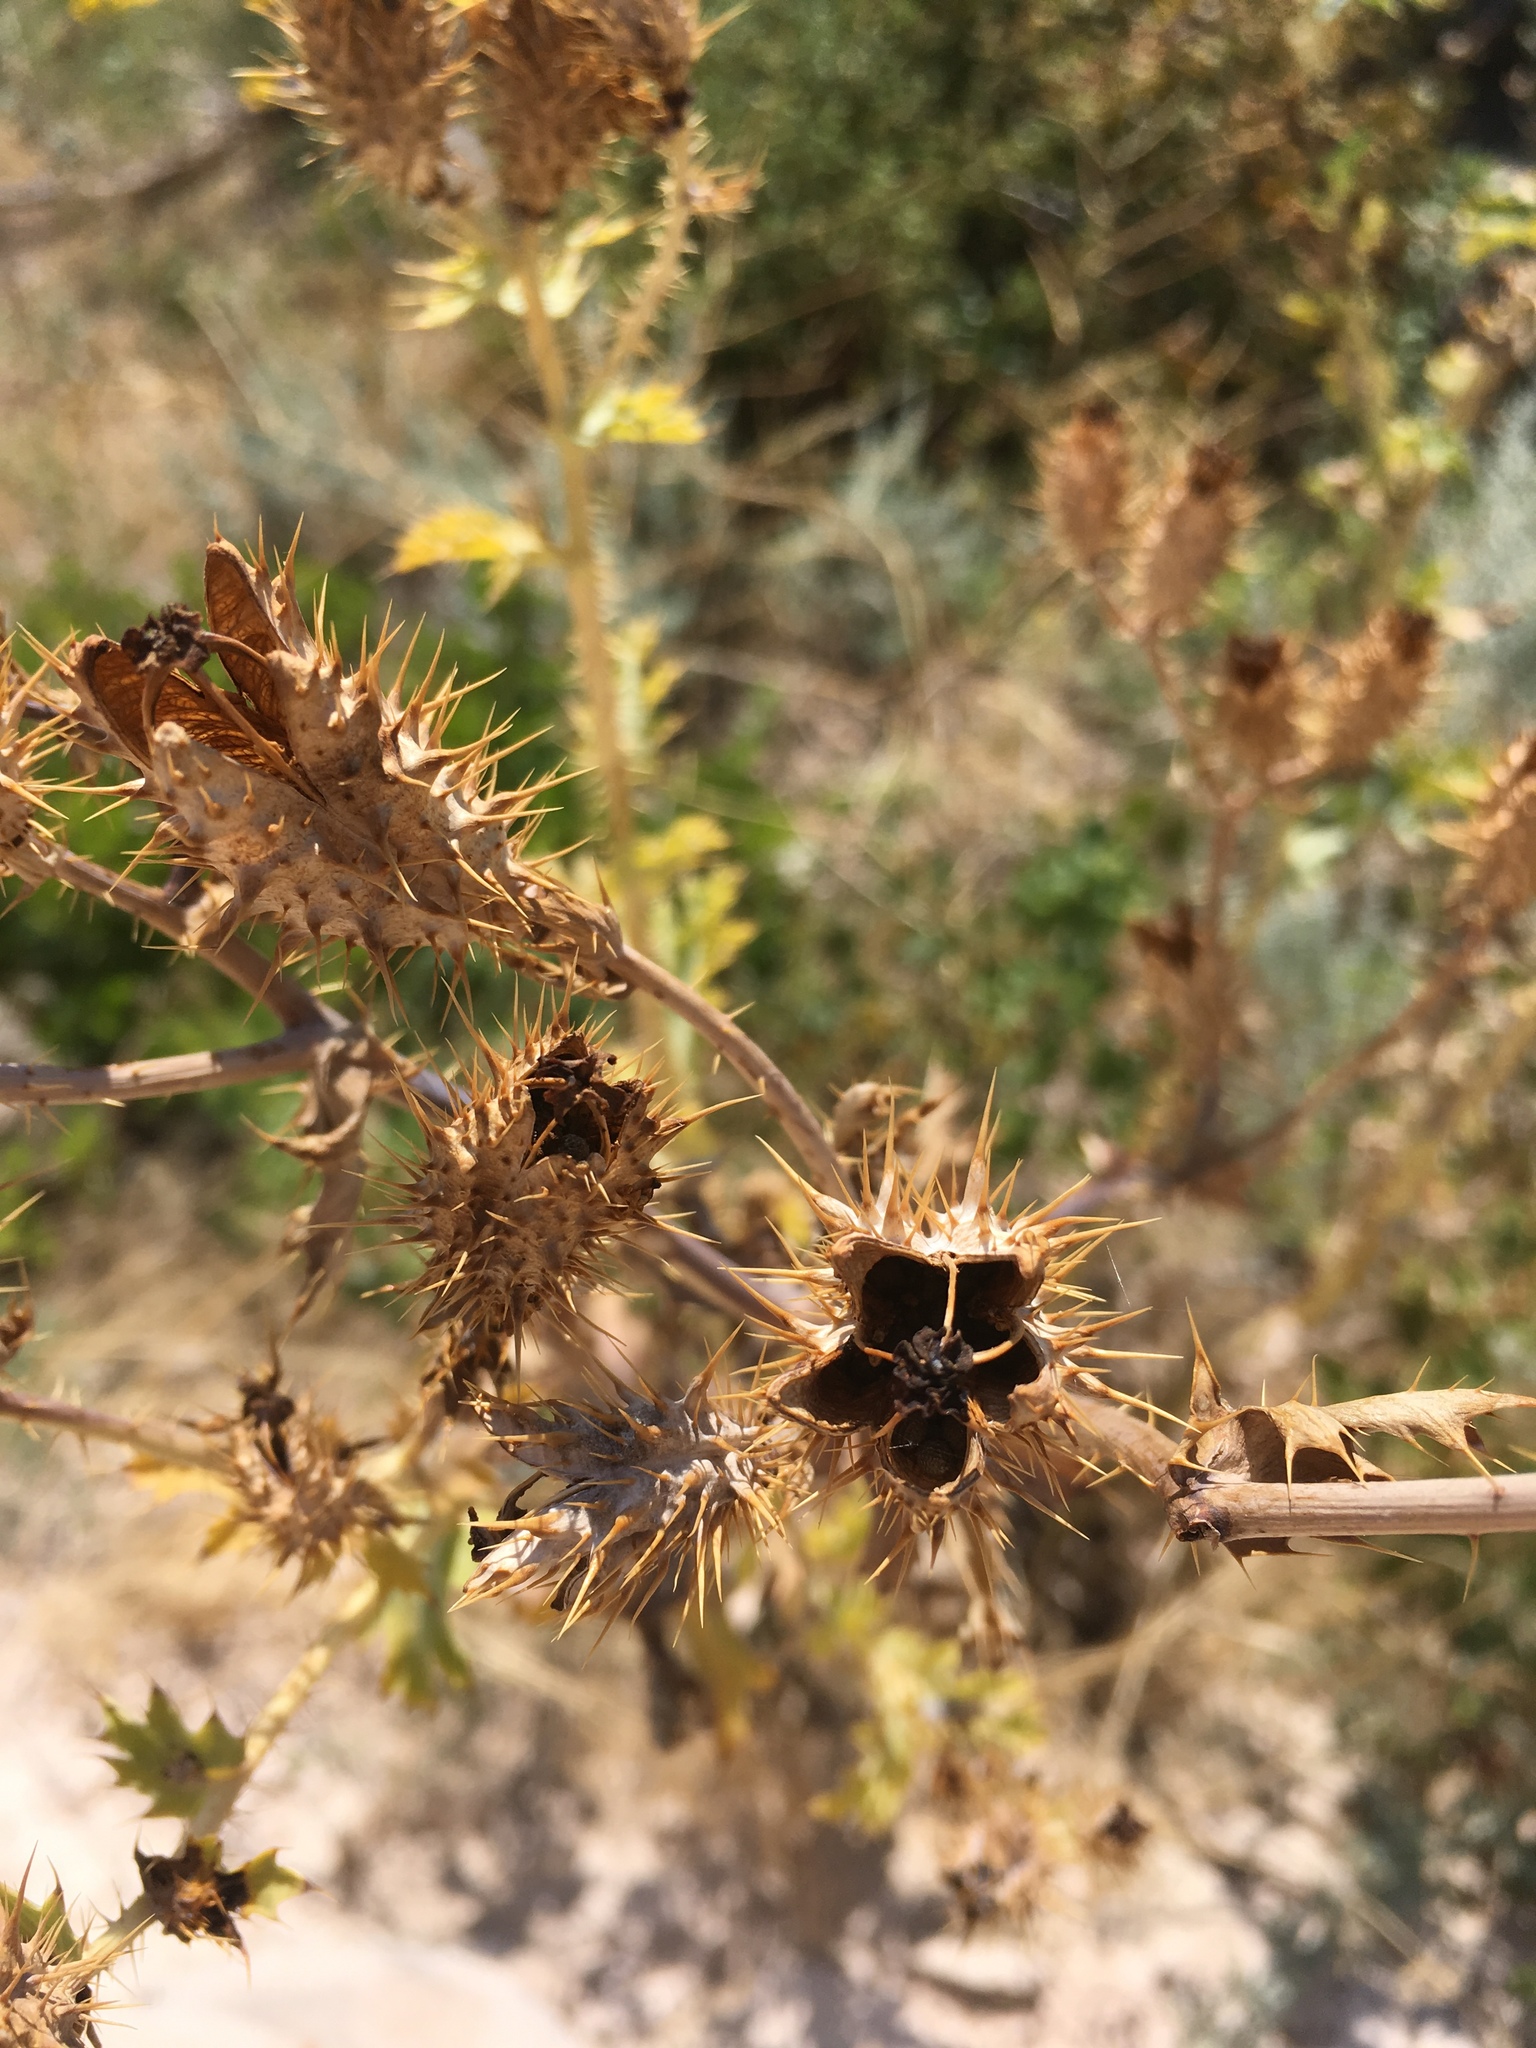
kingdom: Plantae
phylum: Tracheophyta
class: Magnoliopsida
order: Ranunculales
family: Papaveraceae
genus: Argemone
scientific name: Argemone polyanthemos
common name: Plains prickly-poppy
